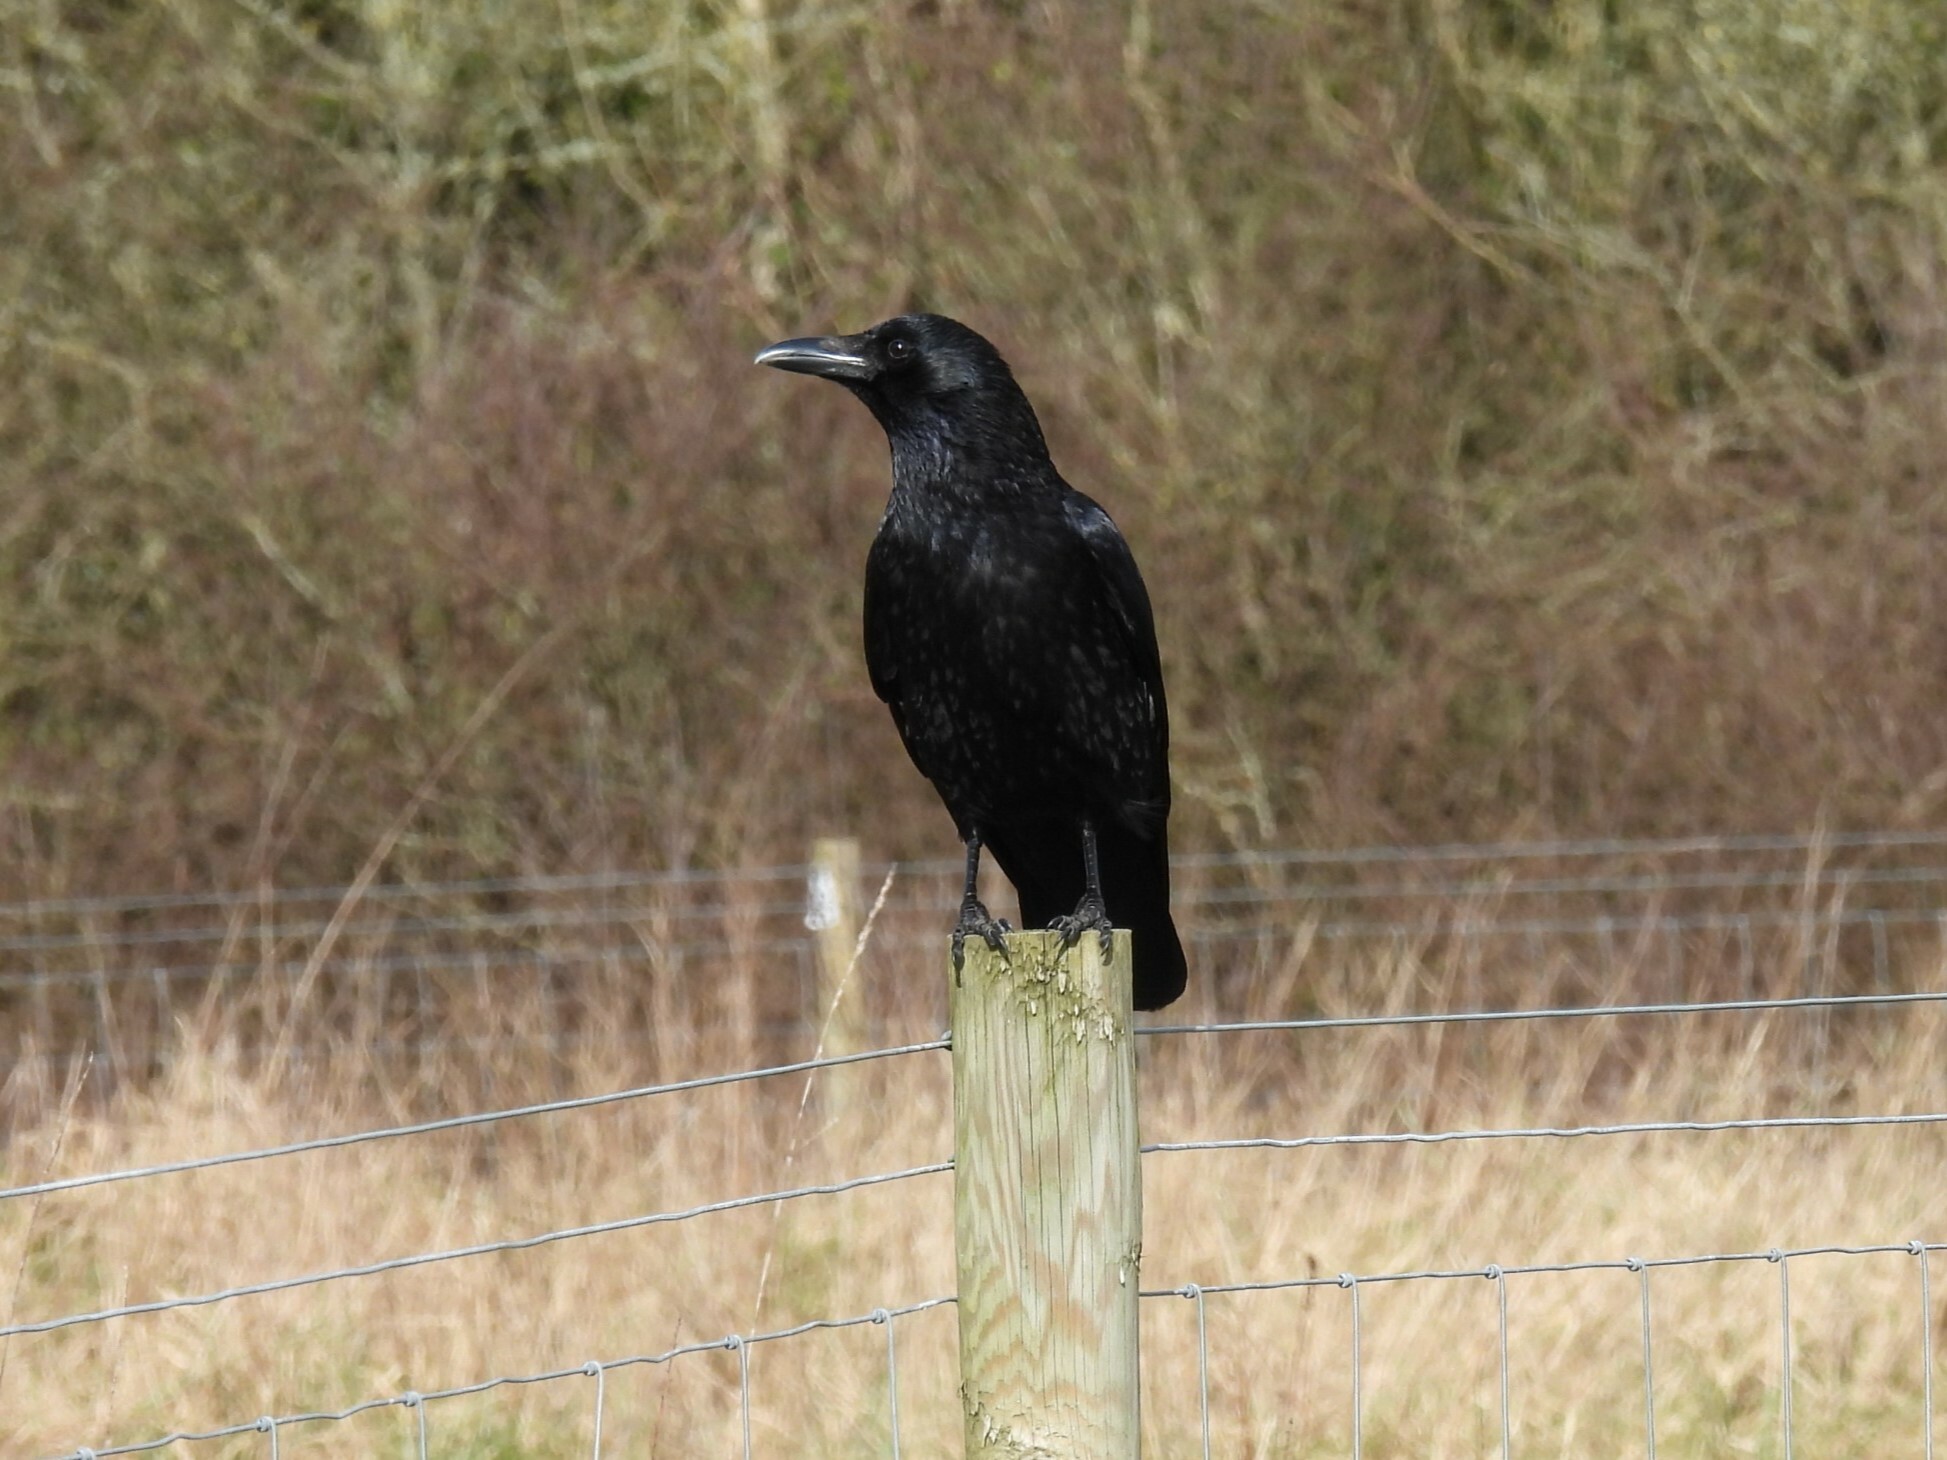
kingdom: Animalia
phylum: Chordata
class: Aves
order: Passeriformes
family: Corvidae
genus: Corvus
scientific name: Corvus corone
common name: Carrion crow
